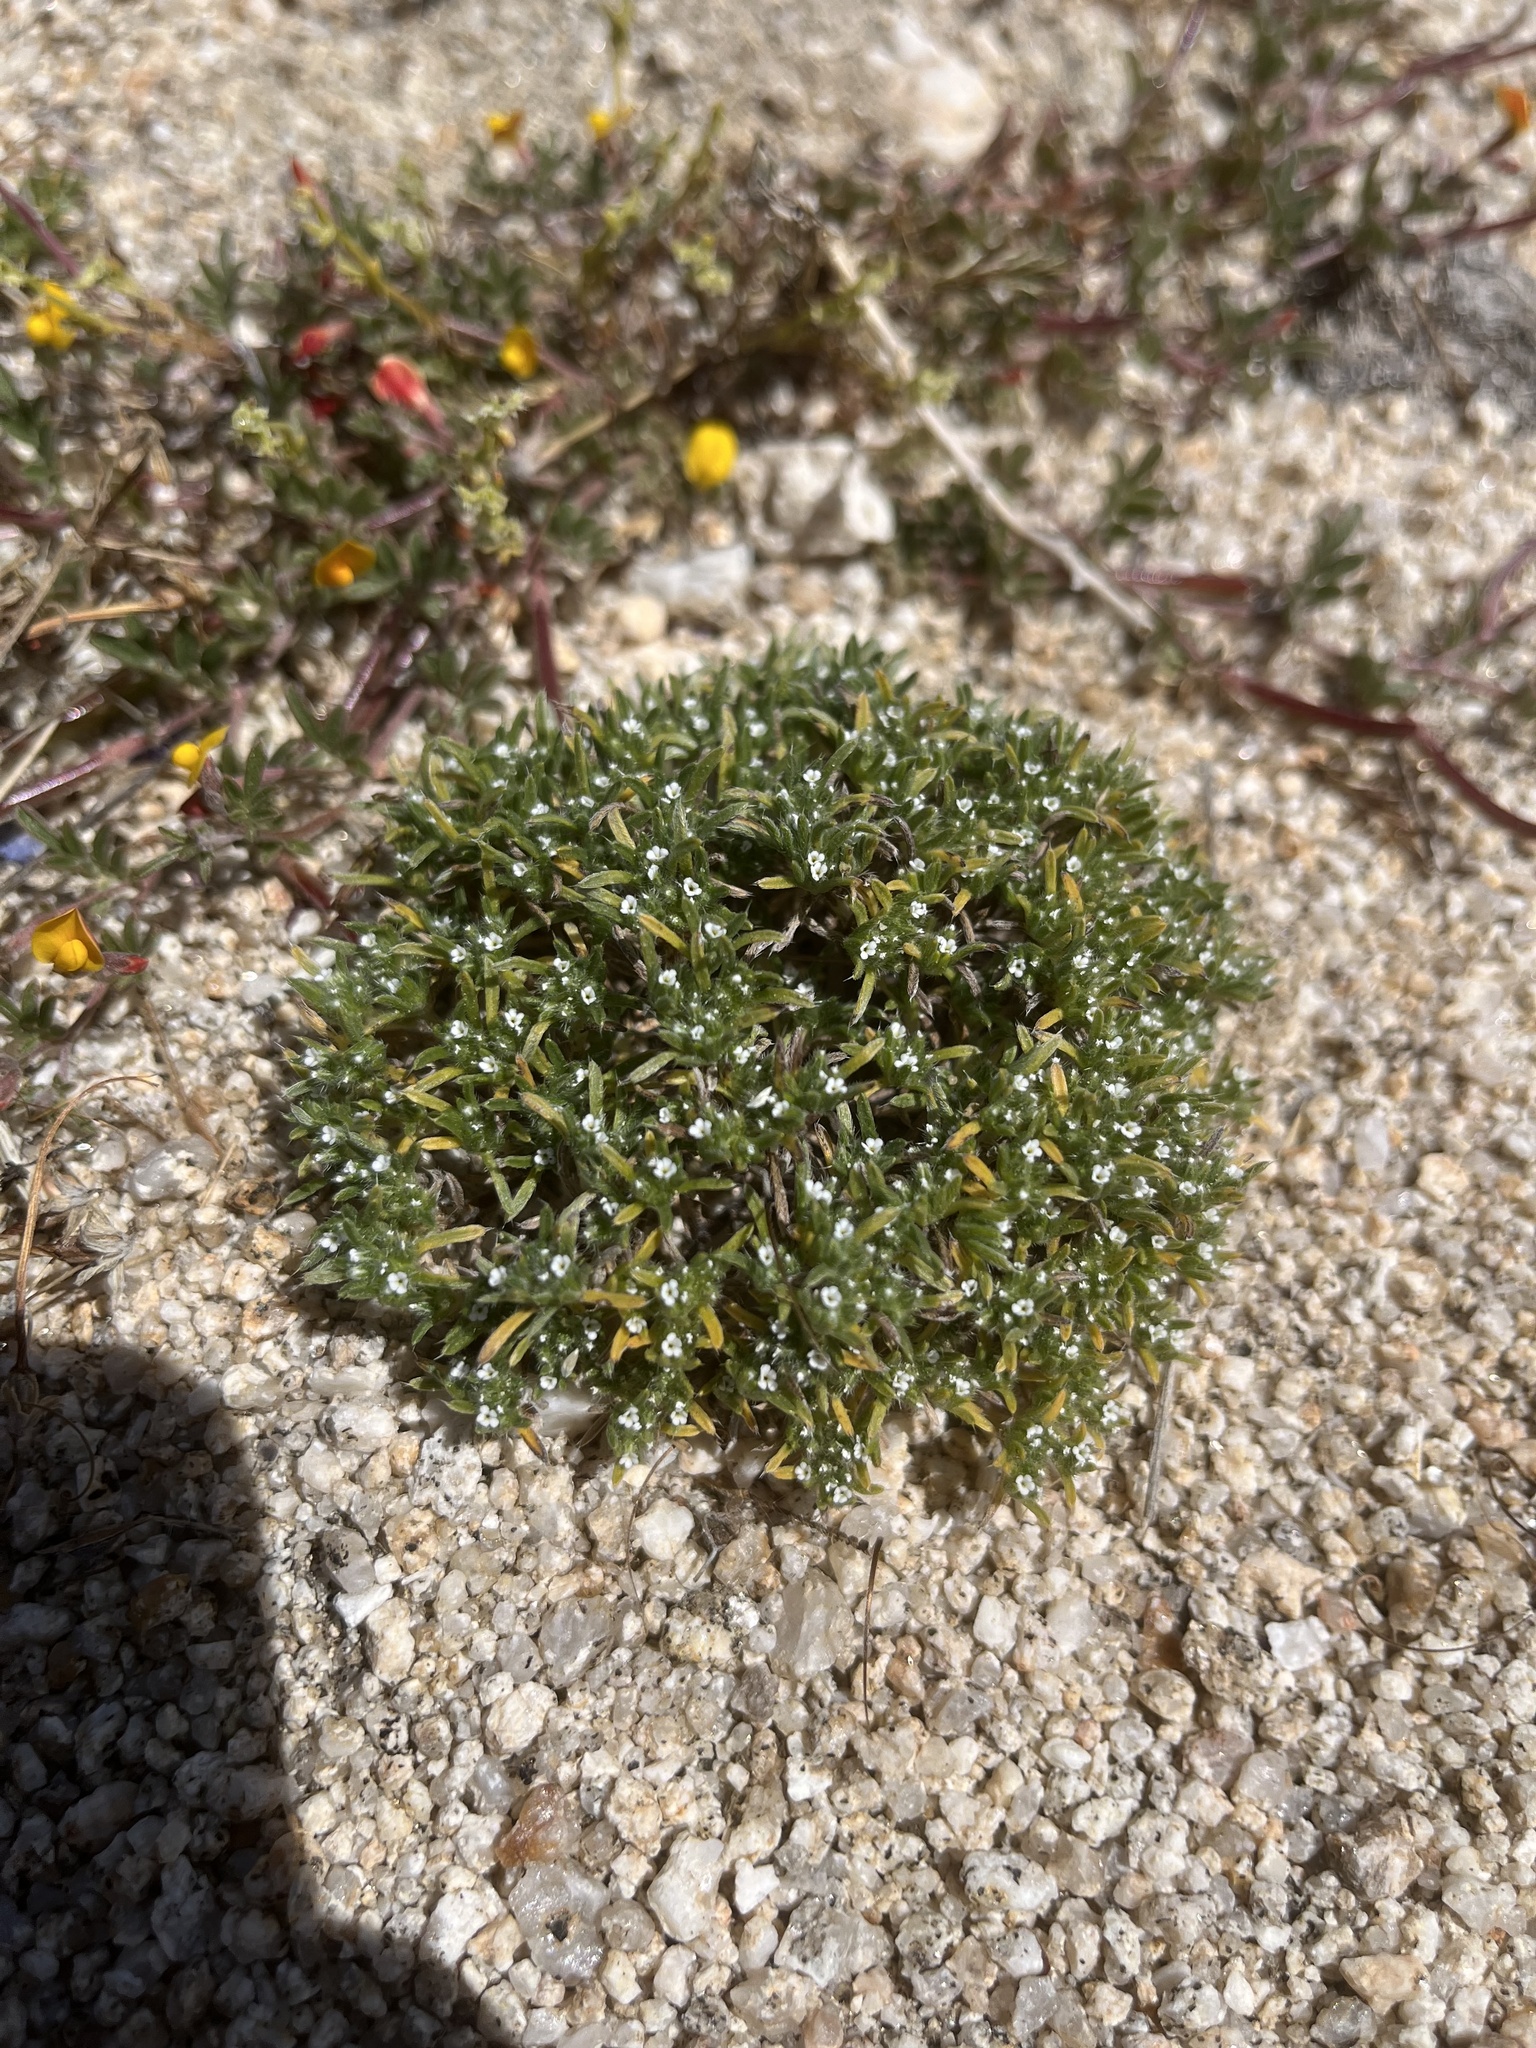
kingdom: Plantae
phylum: Tracheophyta
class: Magnoliopsida
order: Boraginales
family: Boraginaceae
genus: Greeneocharis
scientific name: Greeneocharis circumscissa
